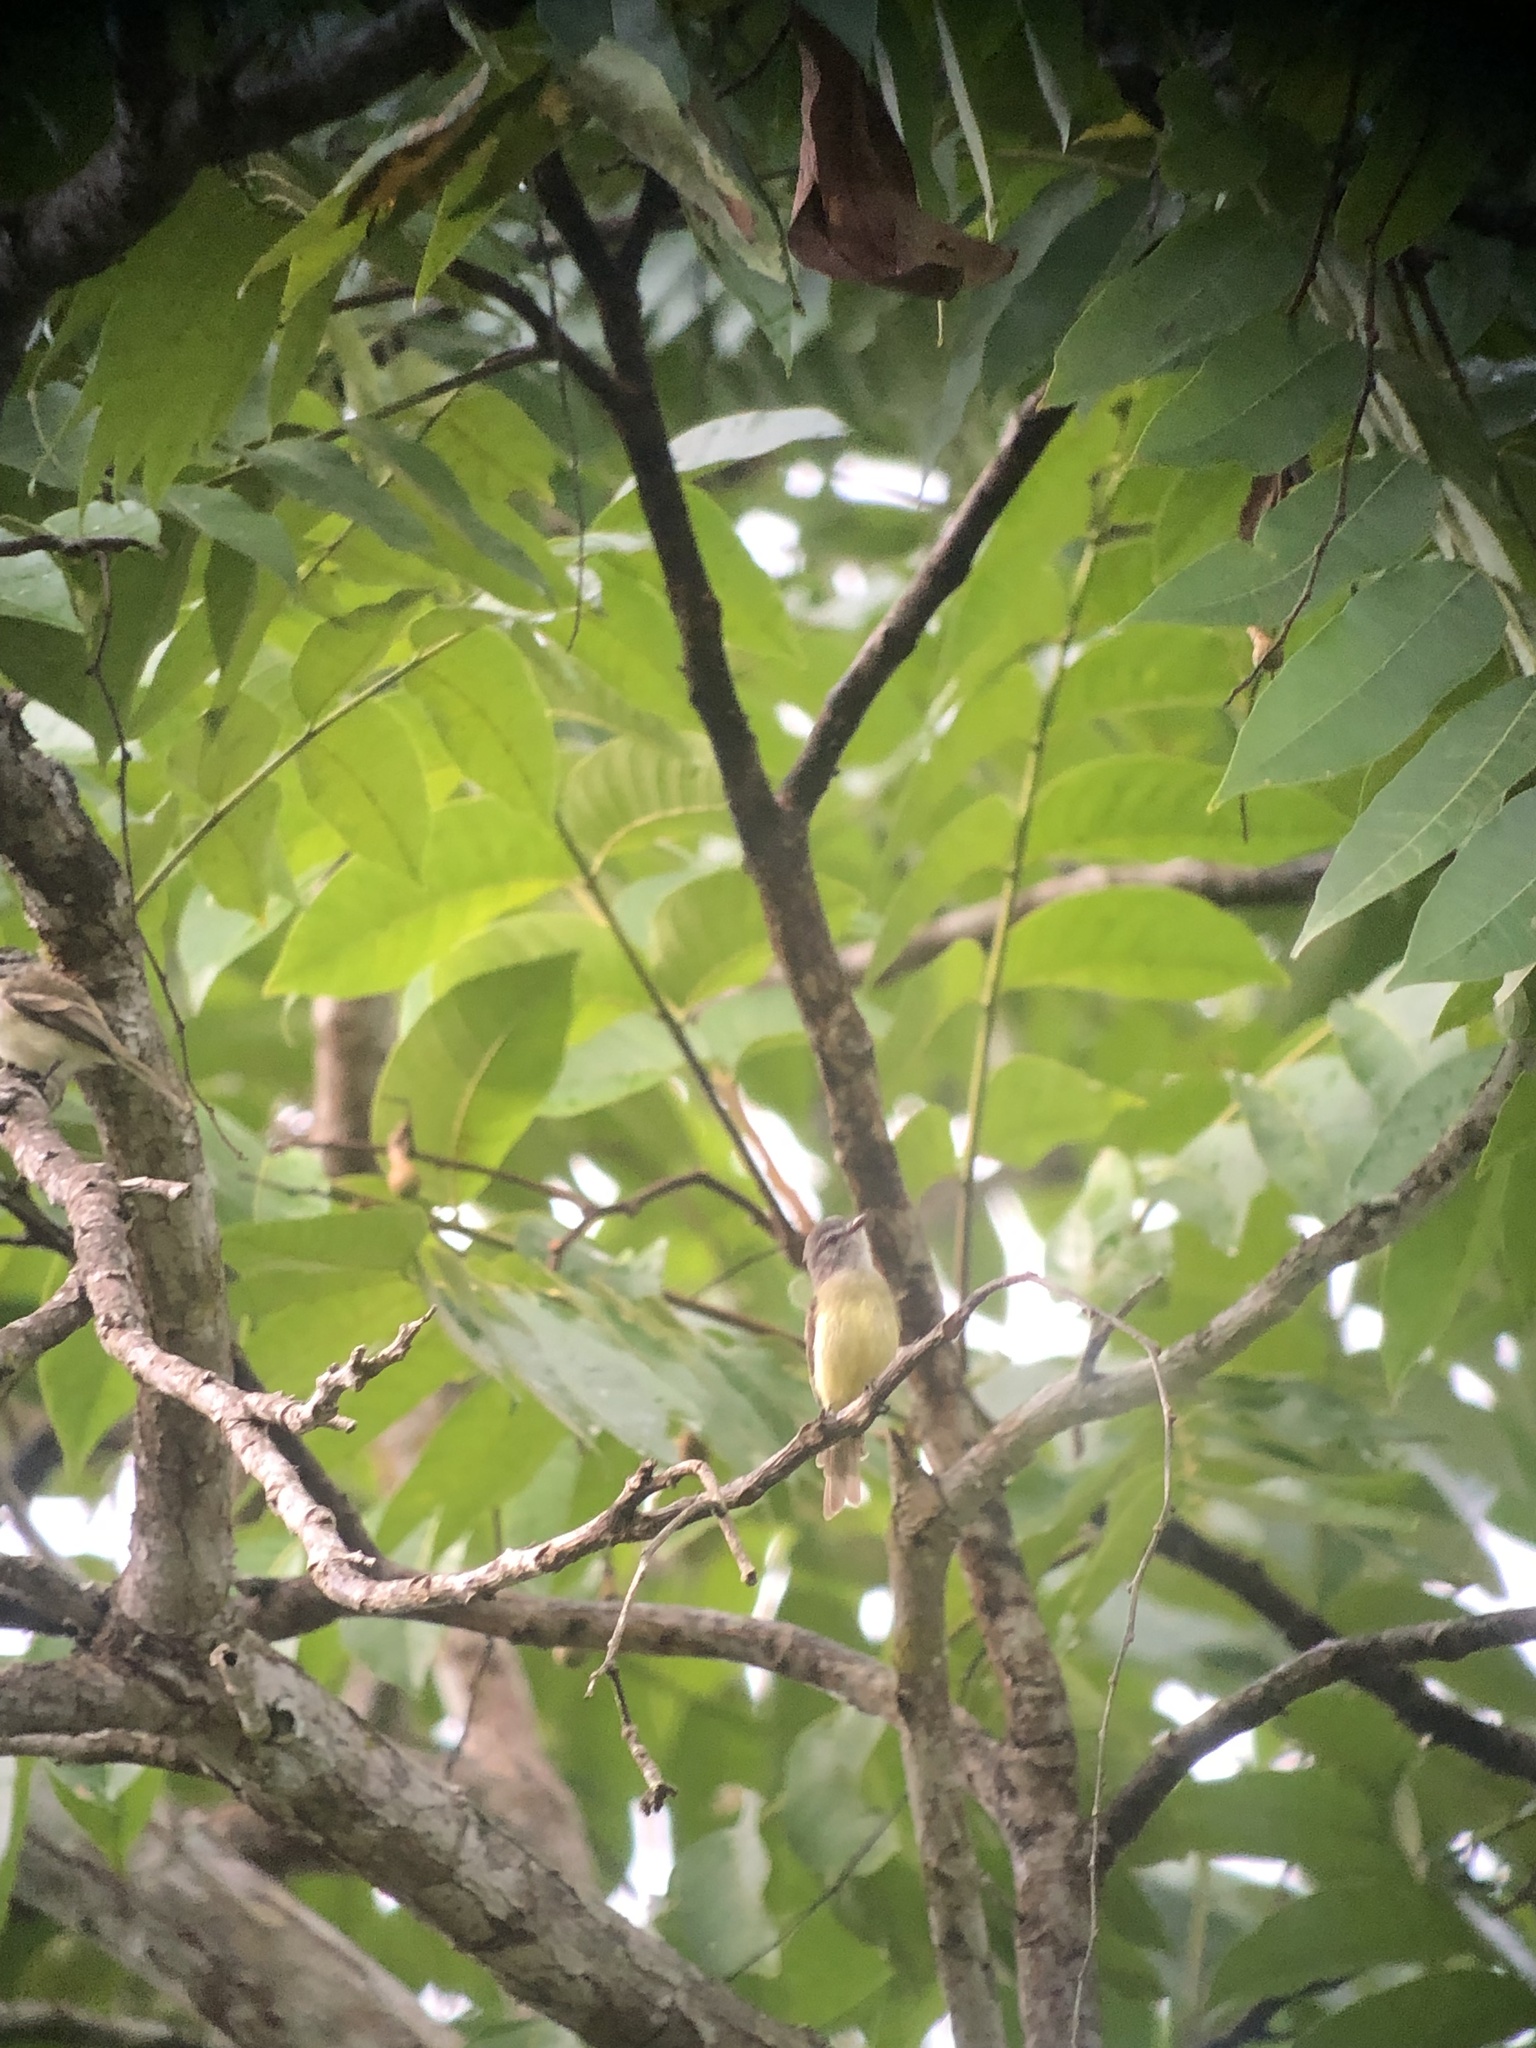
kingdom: Animalia
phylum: Chordata
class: Aves
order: Passeriformes
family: Tyrannidae
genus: Phyllomyias
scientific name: Phyllomyias griseiceps
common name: Sooty-headed tyrannulet
